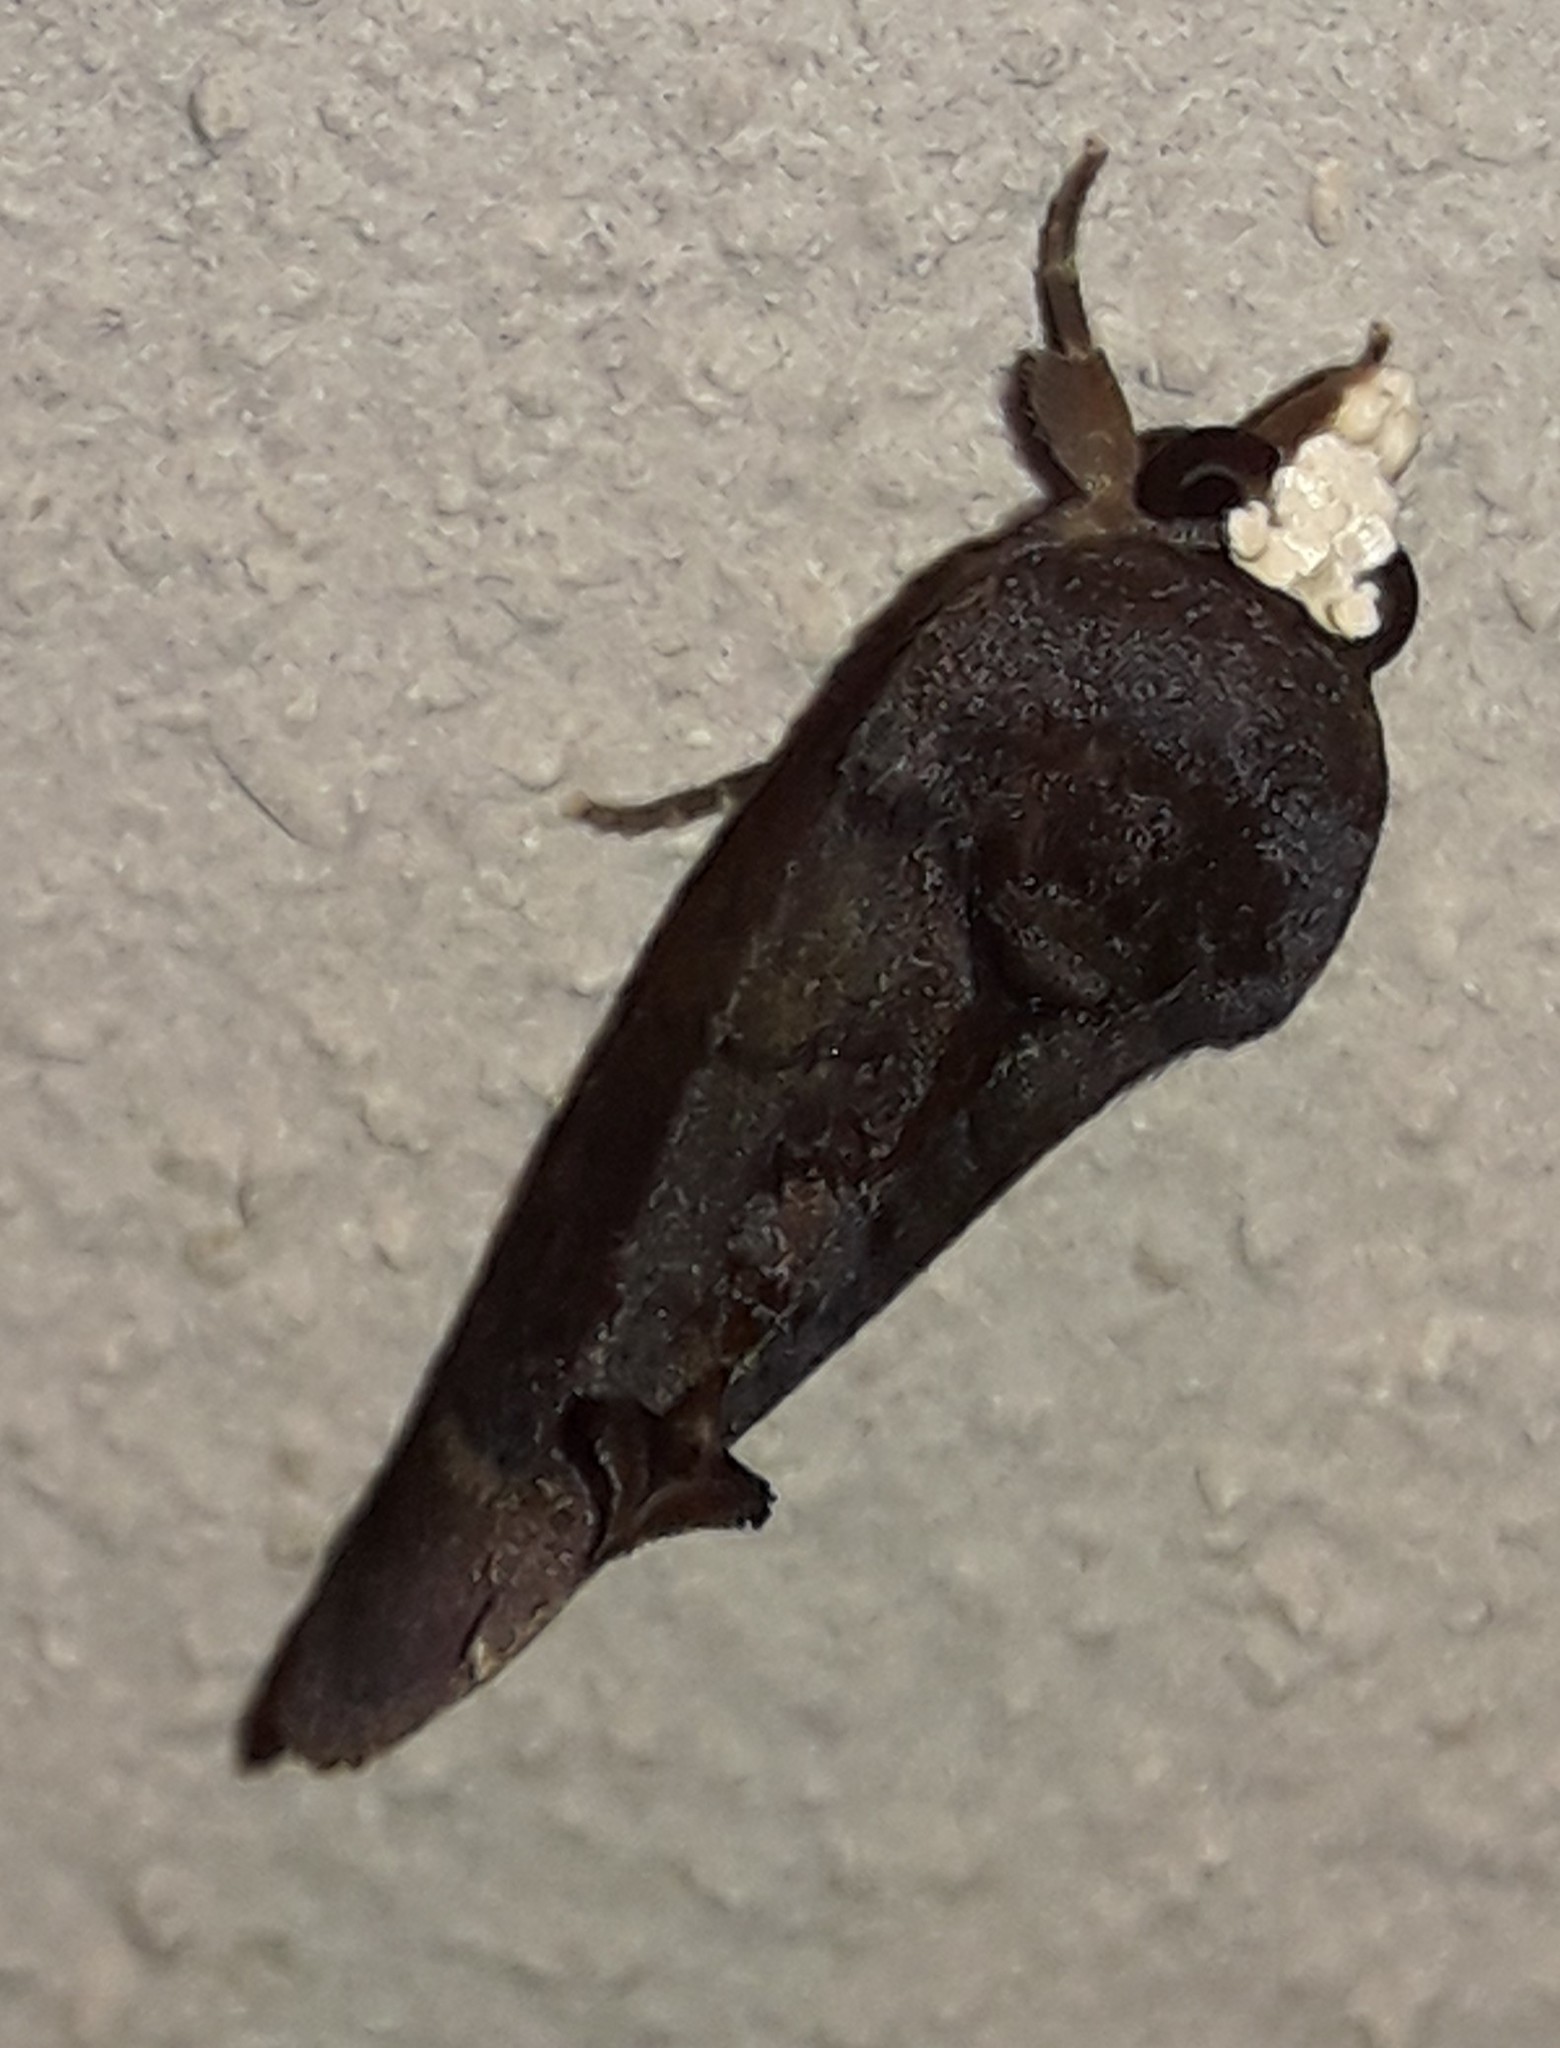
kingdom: Animalia
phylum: Arthropoda
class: Insecta
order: Lepidoptera
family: Erebidae
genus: Gonodonta
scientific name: Gonodonta immacula
